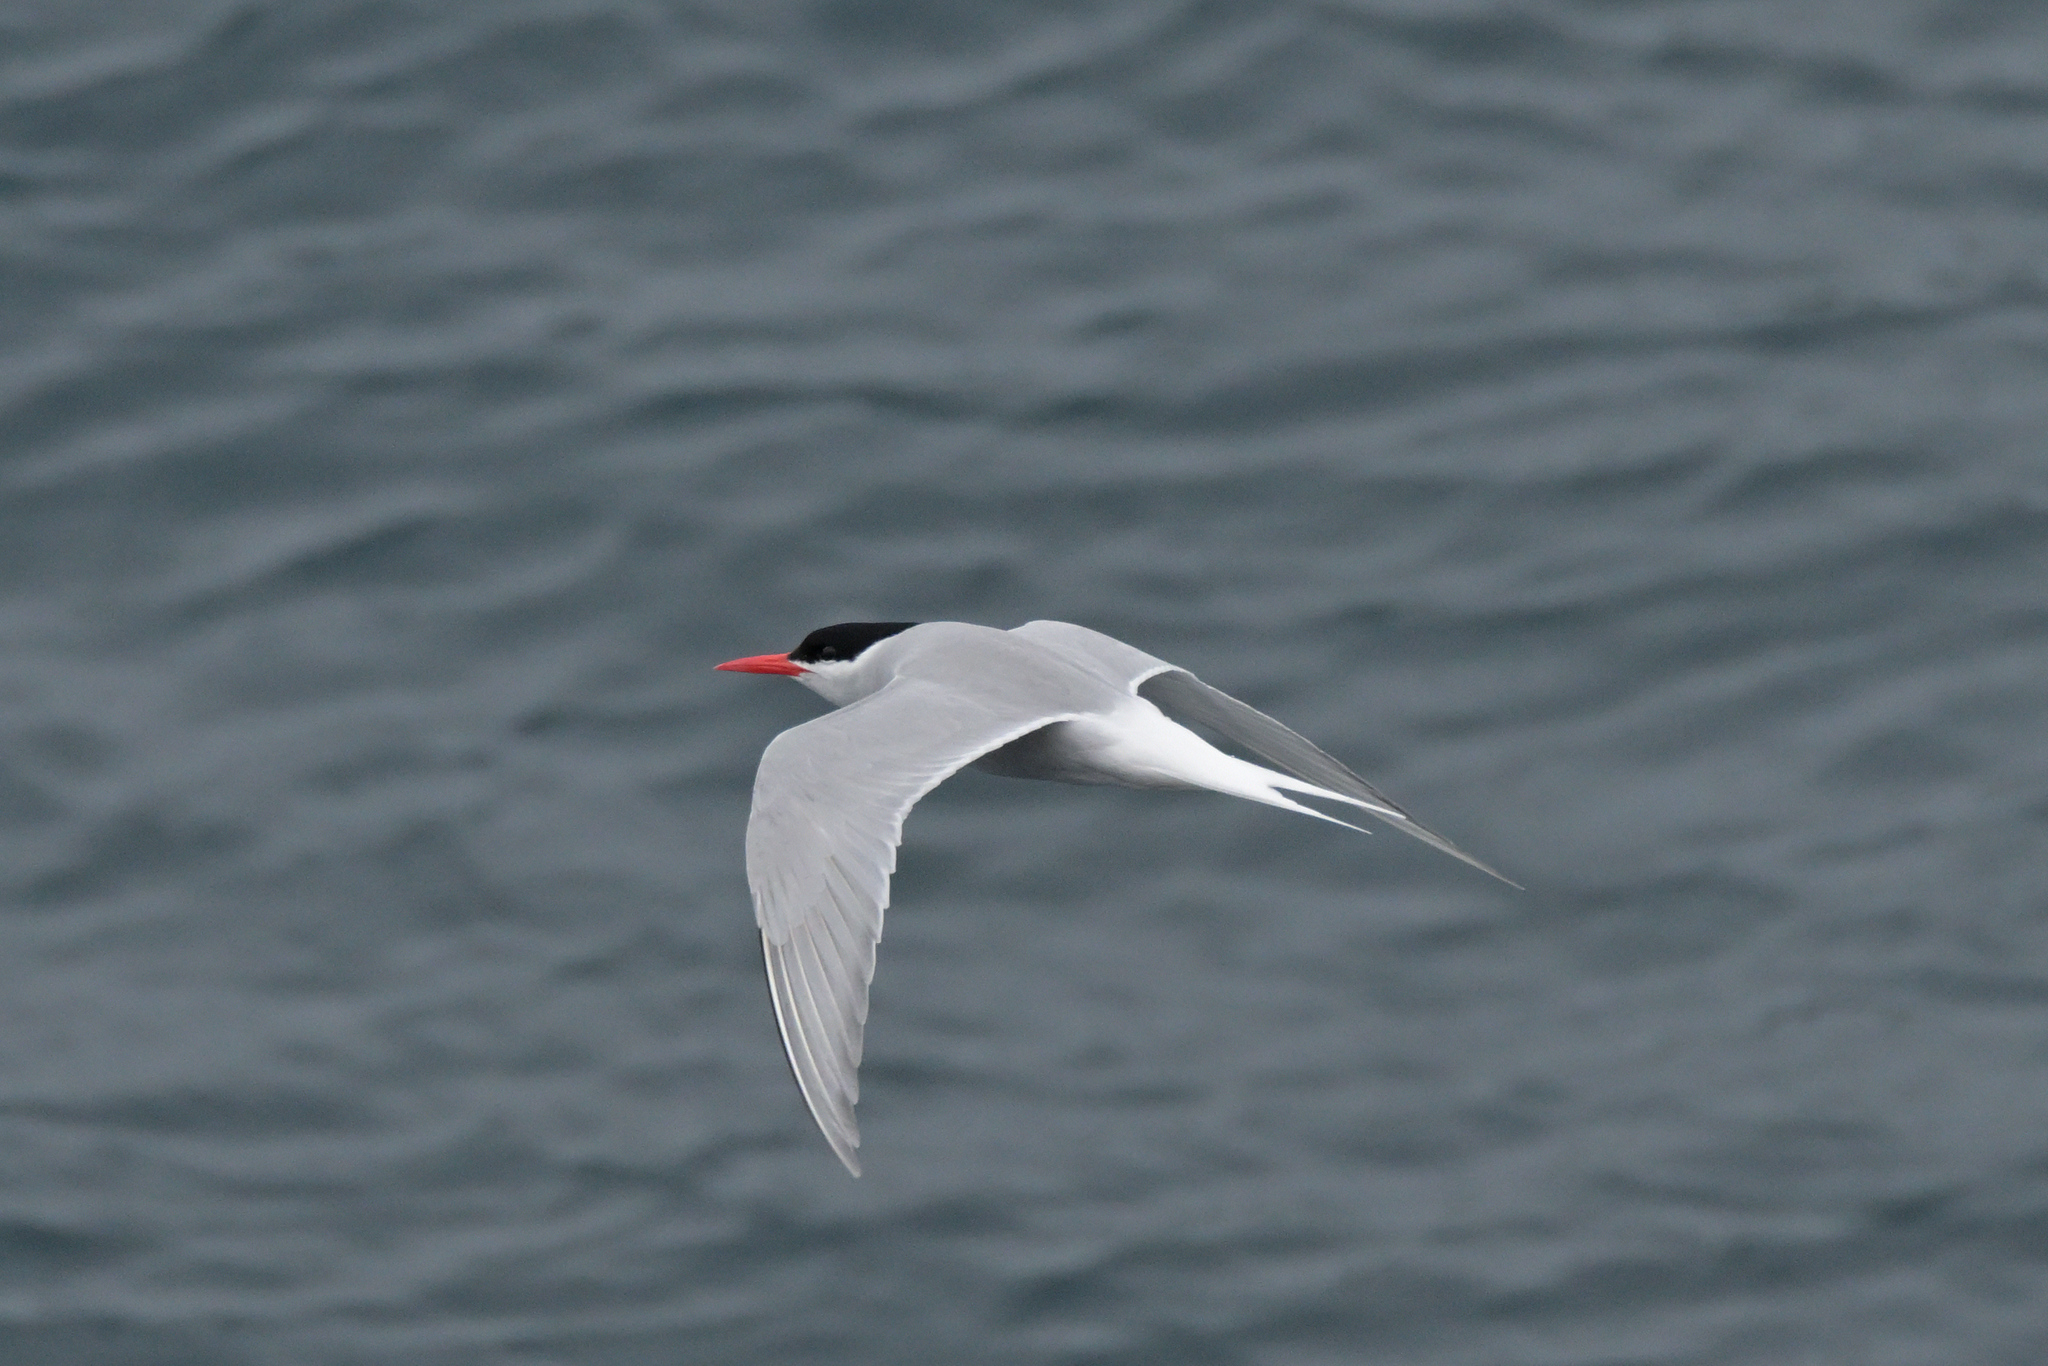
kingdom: Animalia
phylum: Chordata
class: Aves
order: Charadriiformes
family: Laridae
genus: Sterna
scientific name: Sterna vittata
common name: Antarctic tern
